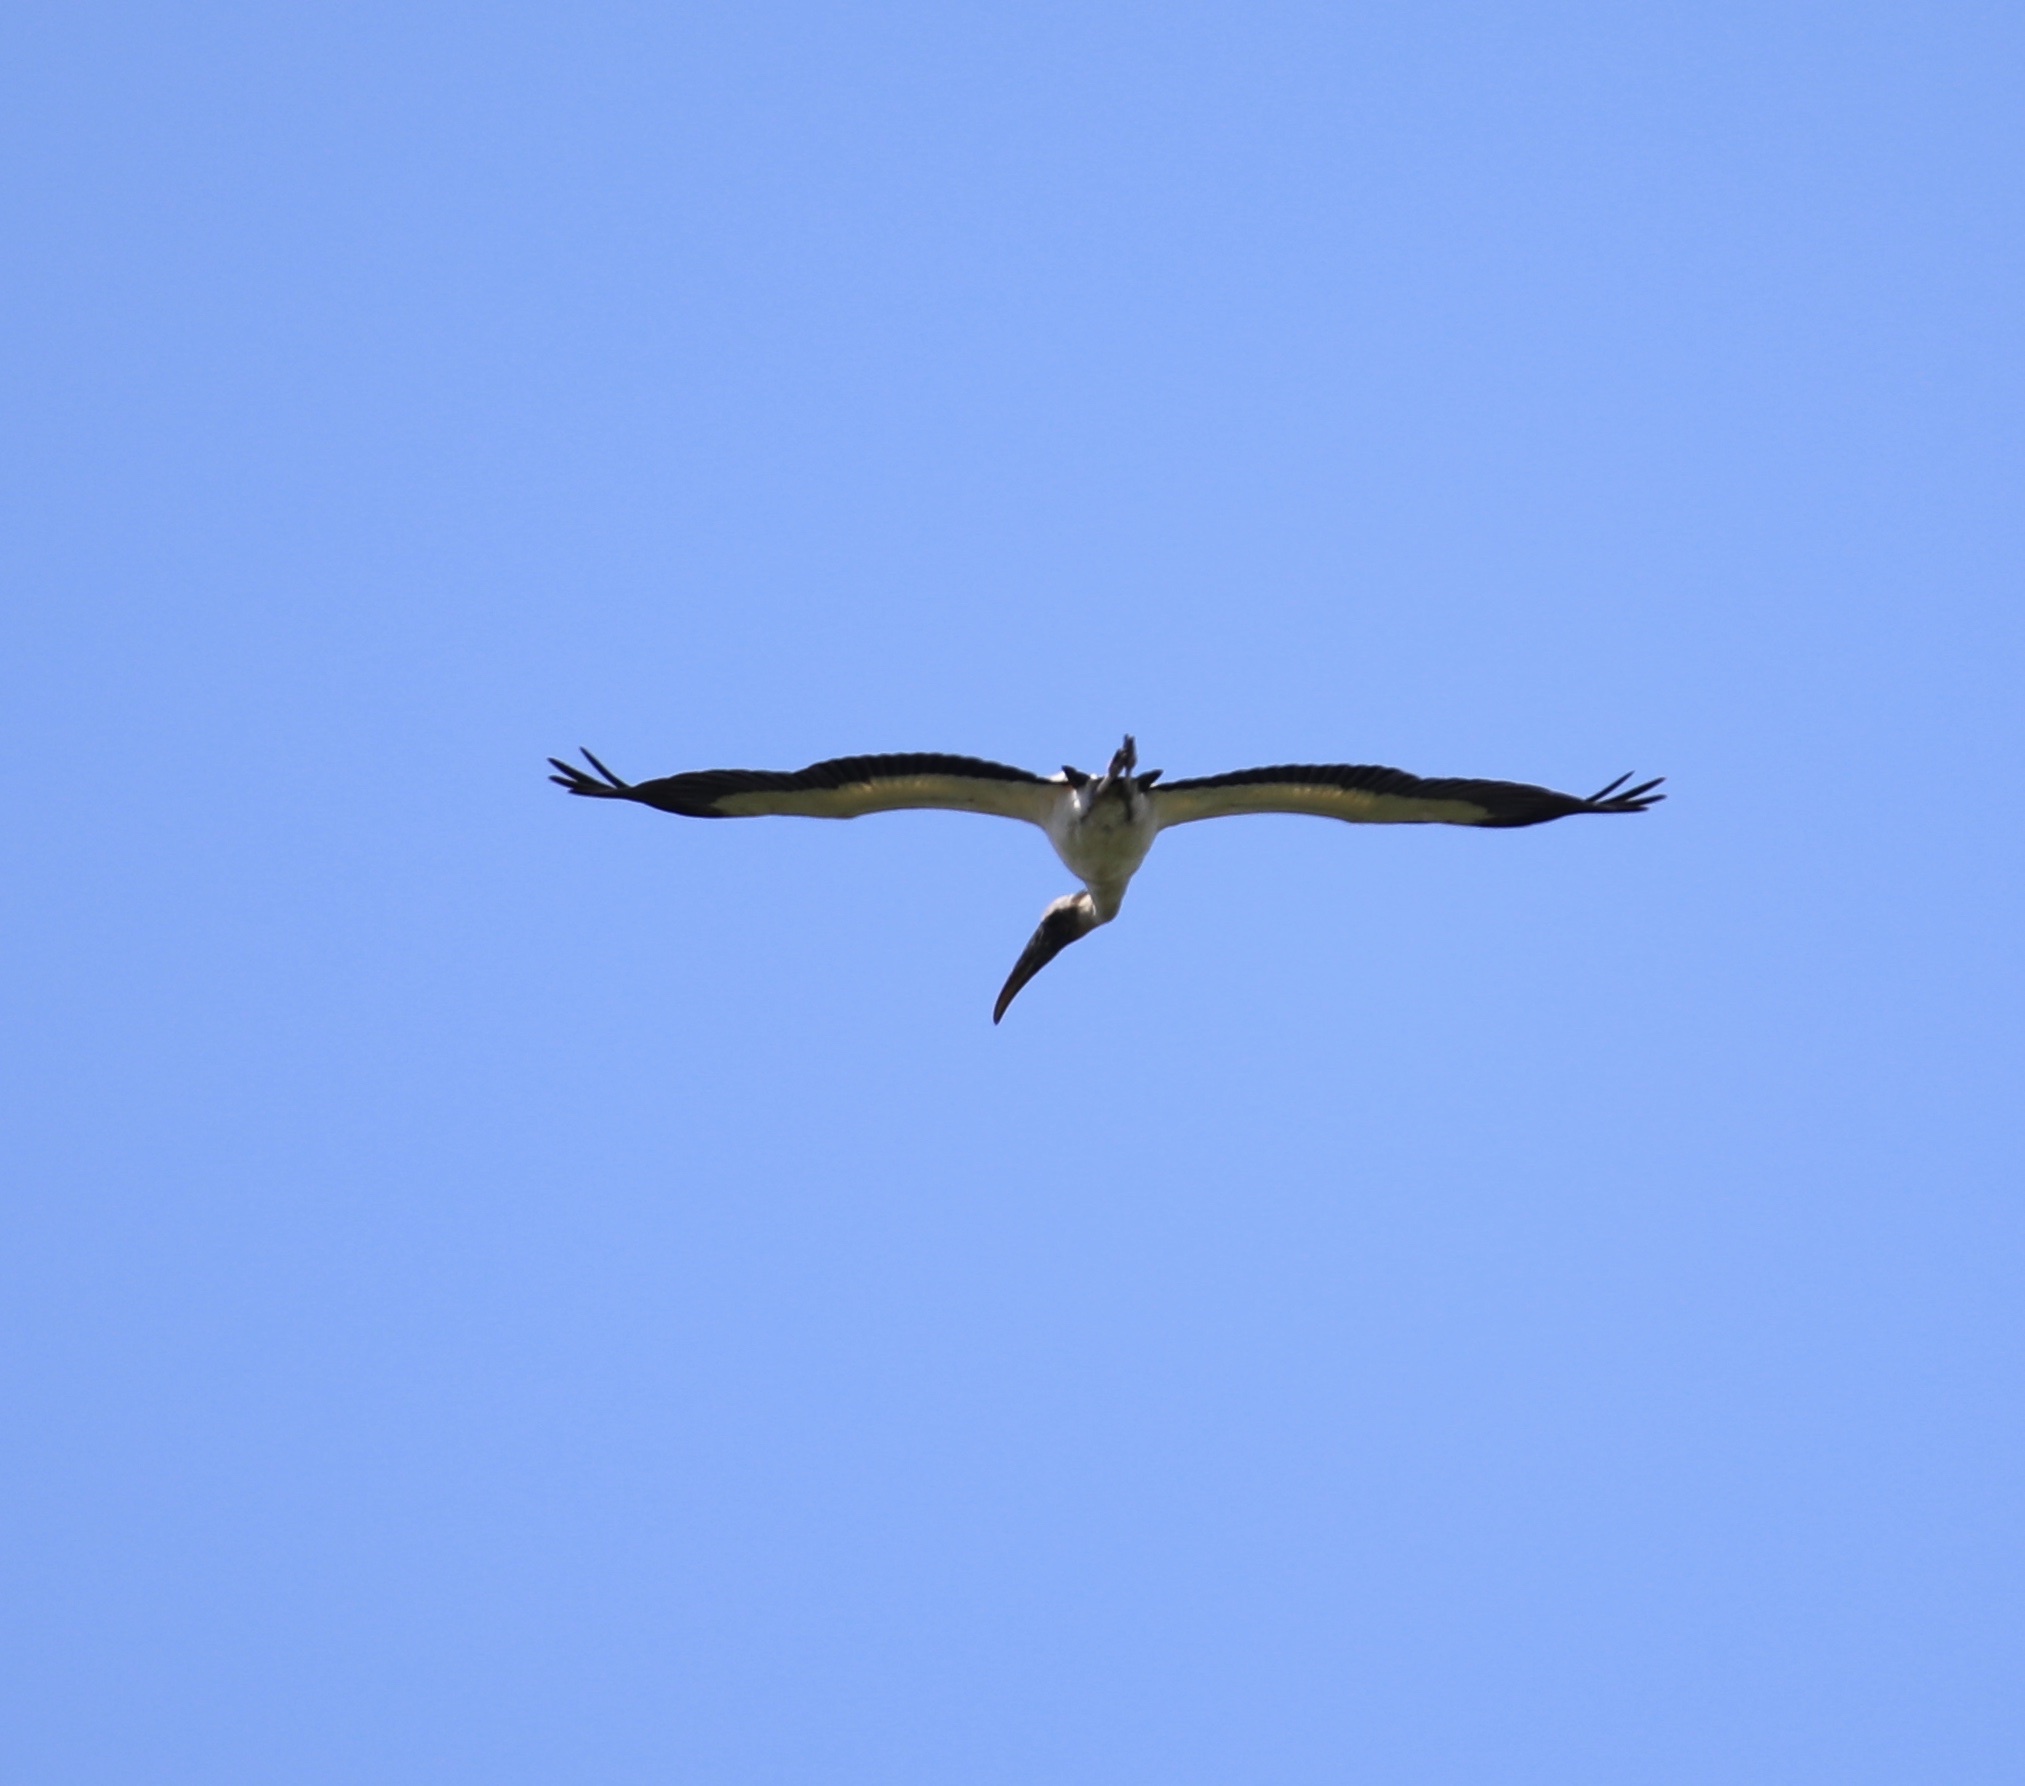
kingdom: Animalia
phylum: Chordata
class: Aves
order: Ciconiiformes
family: Ciconiidae
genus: Mycteria
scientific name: Mycteria americana
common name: Wood stork
